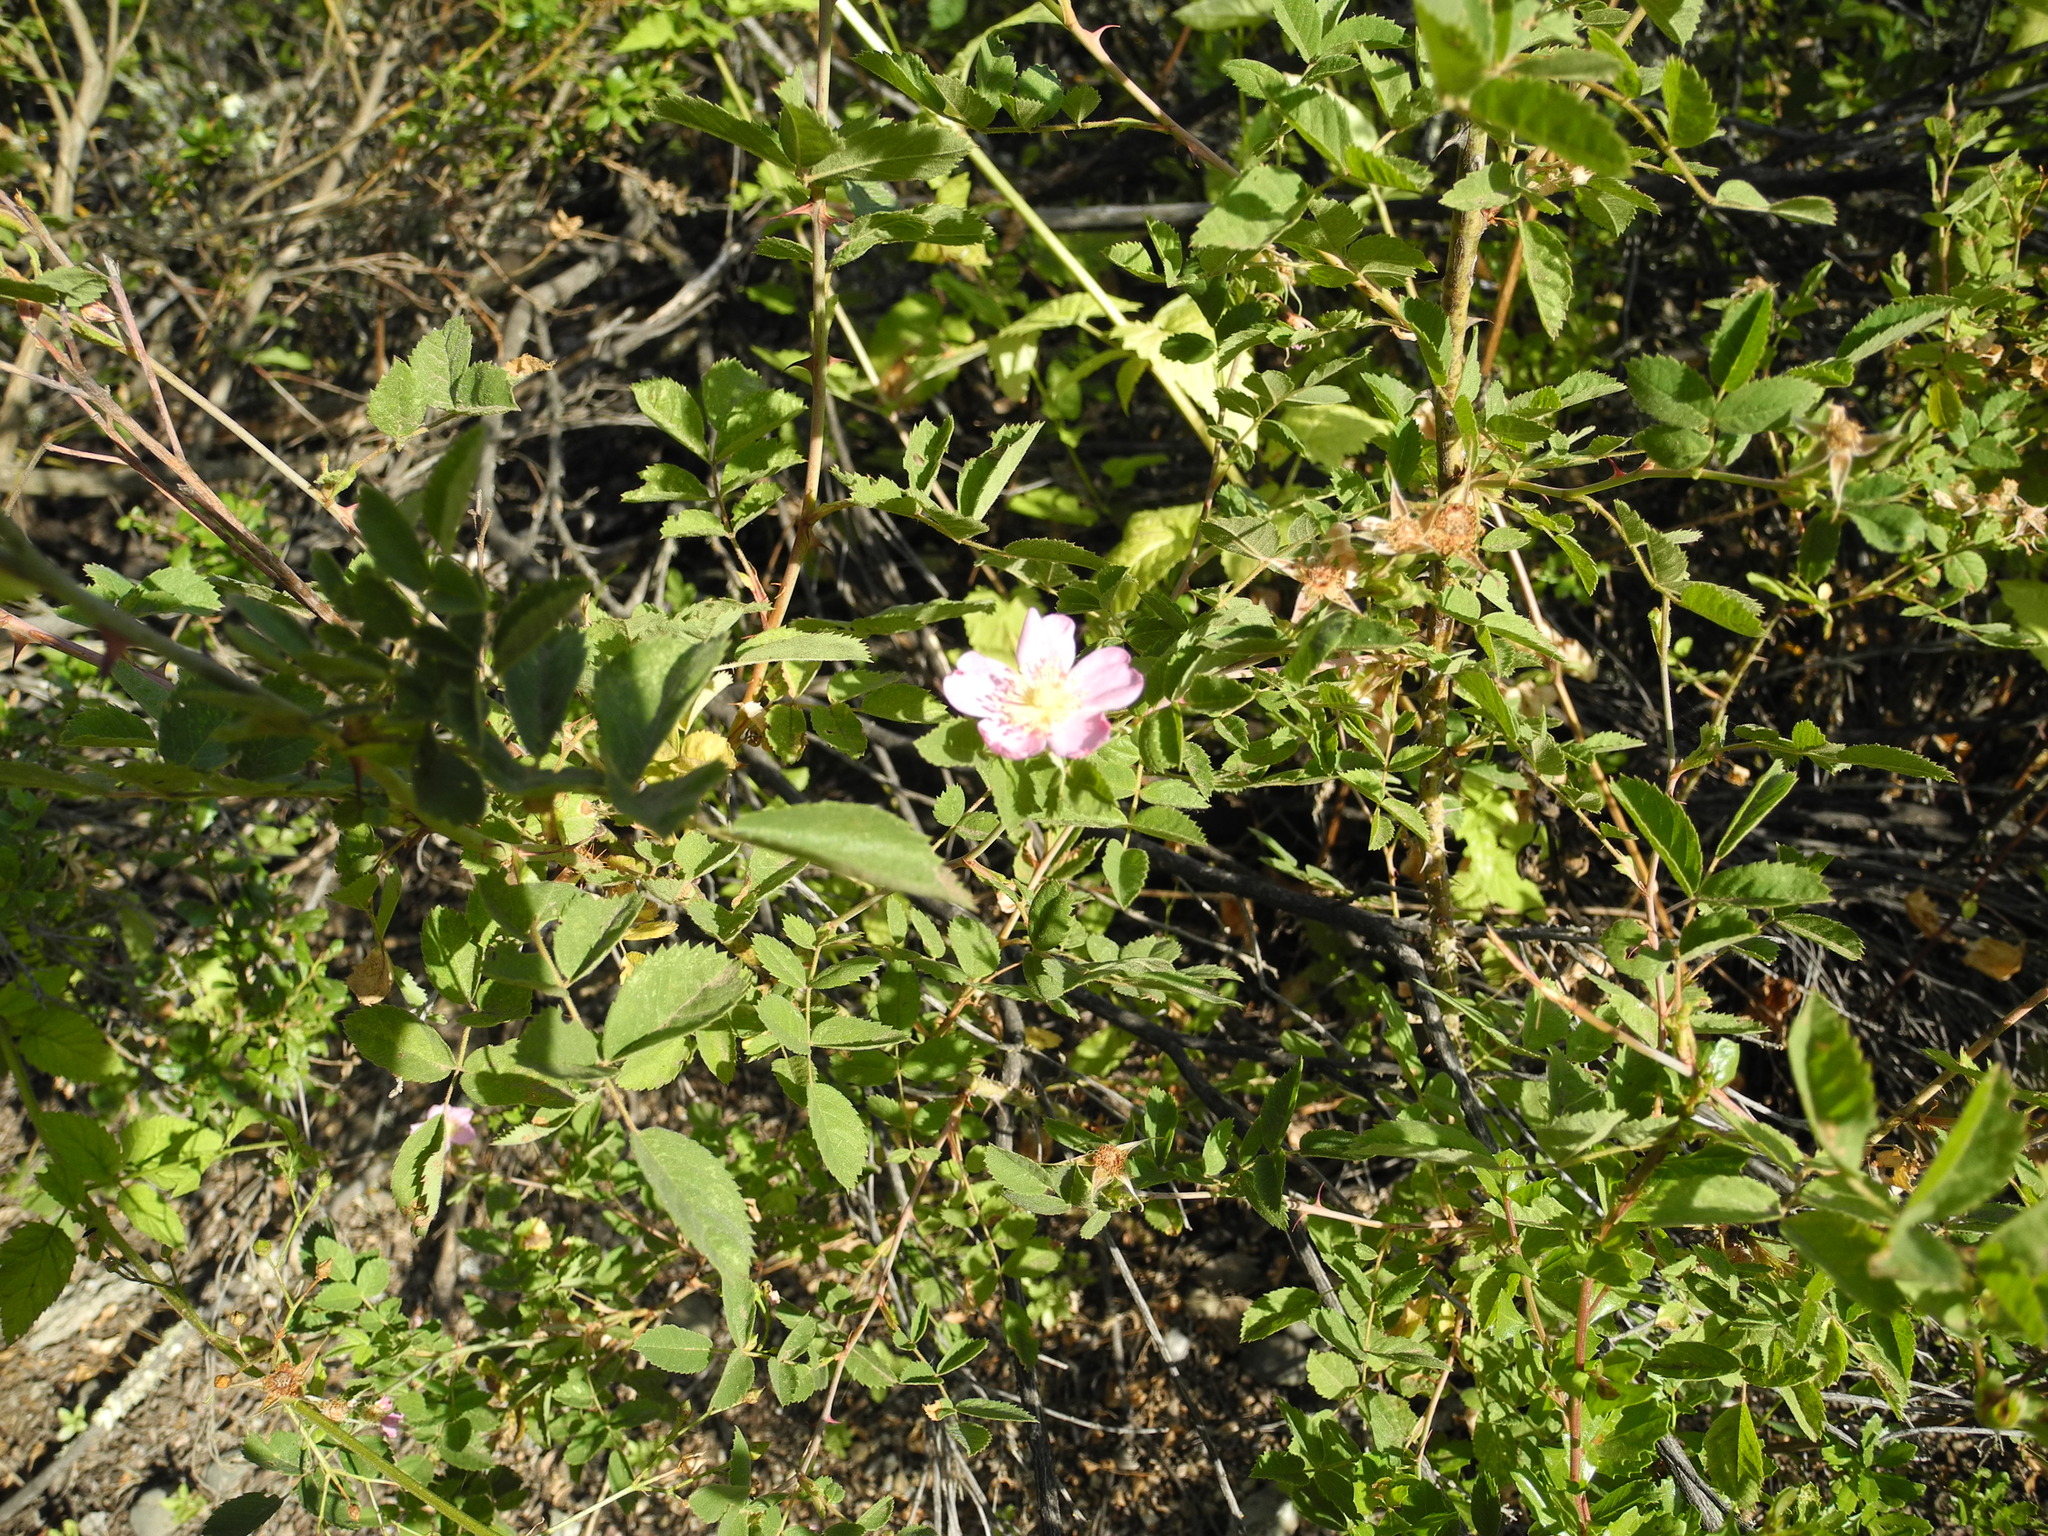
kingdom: Plantae
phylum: Tracheophyta
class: Magnoliopsida
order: Rosales
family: Rosaceae
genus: Rosa
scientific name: Rosa californica
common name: California rose
